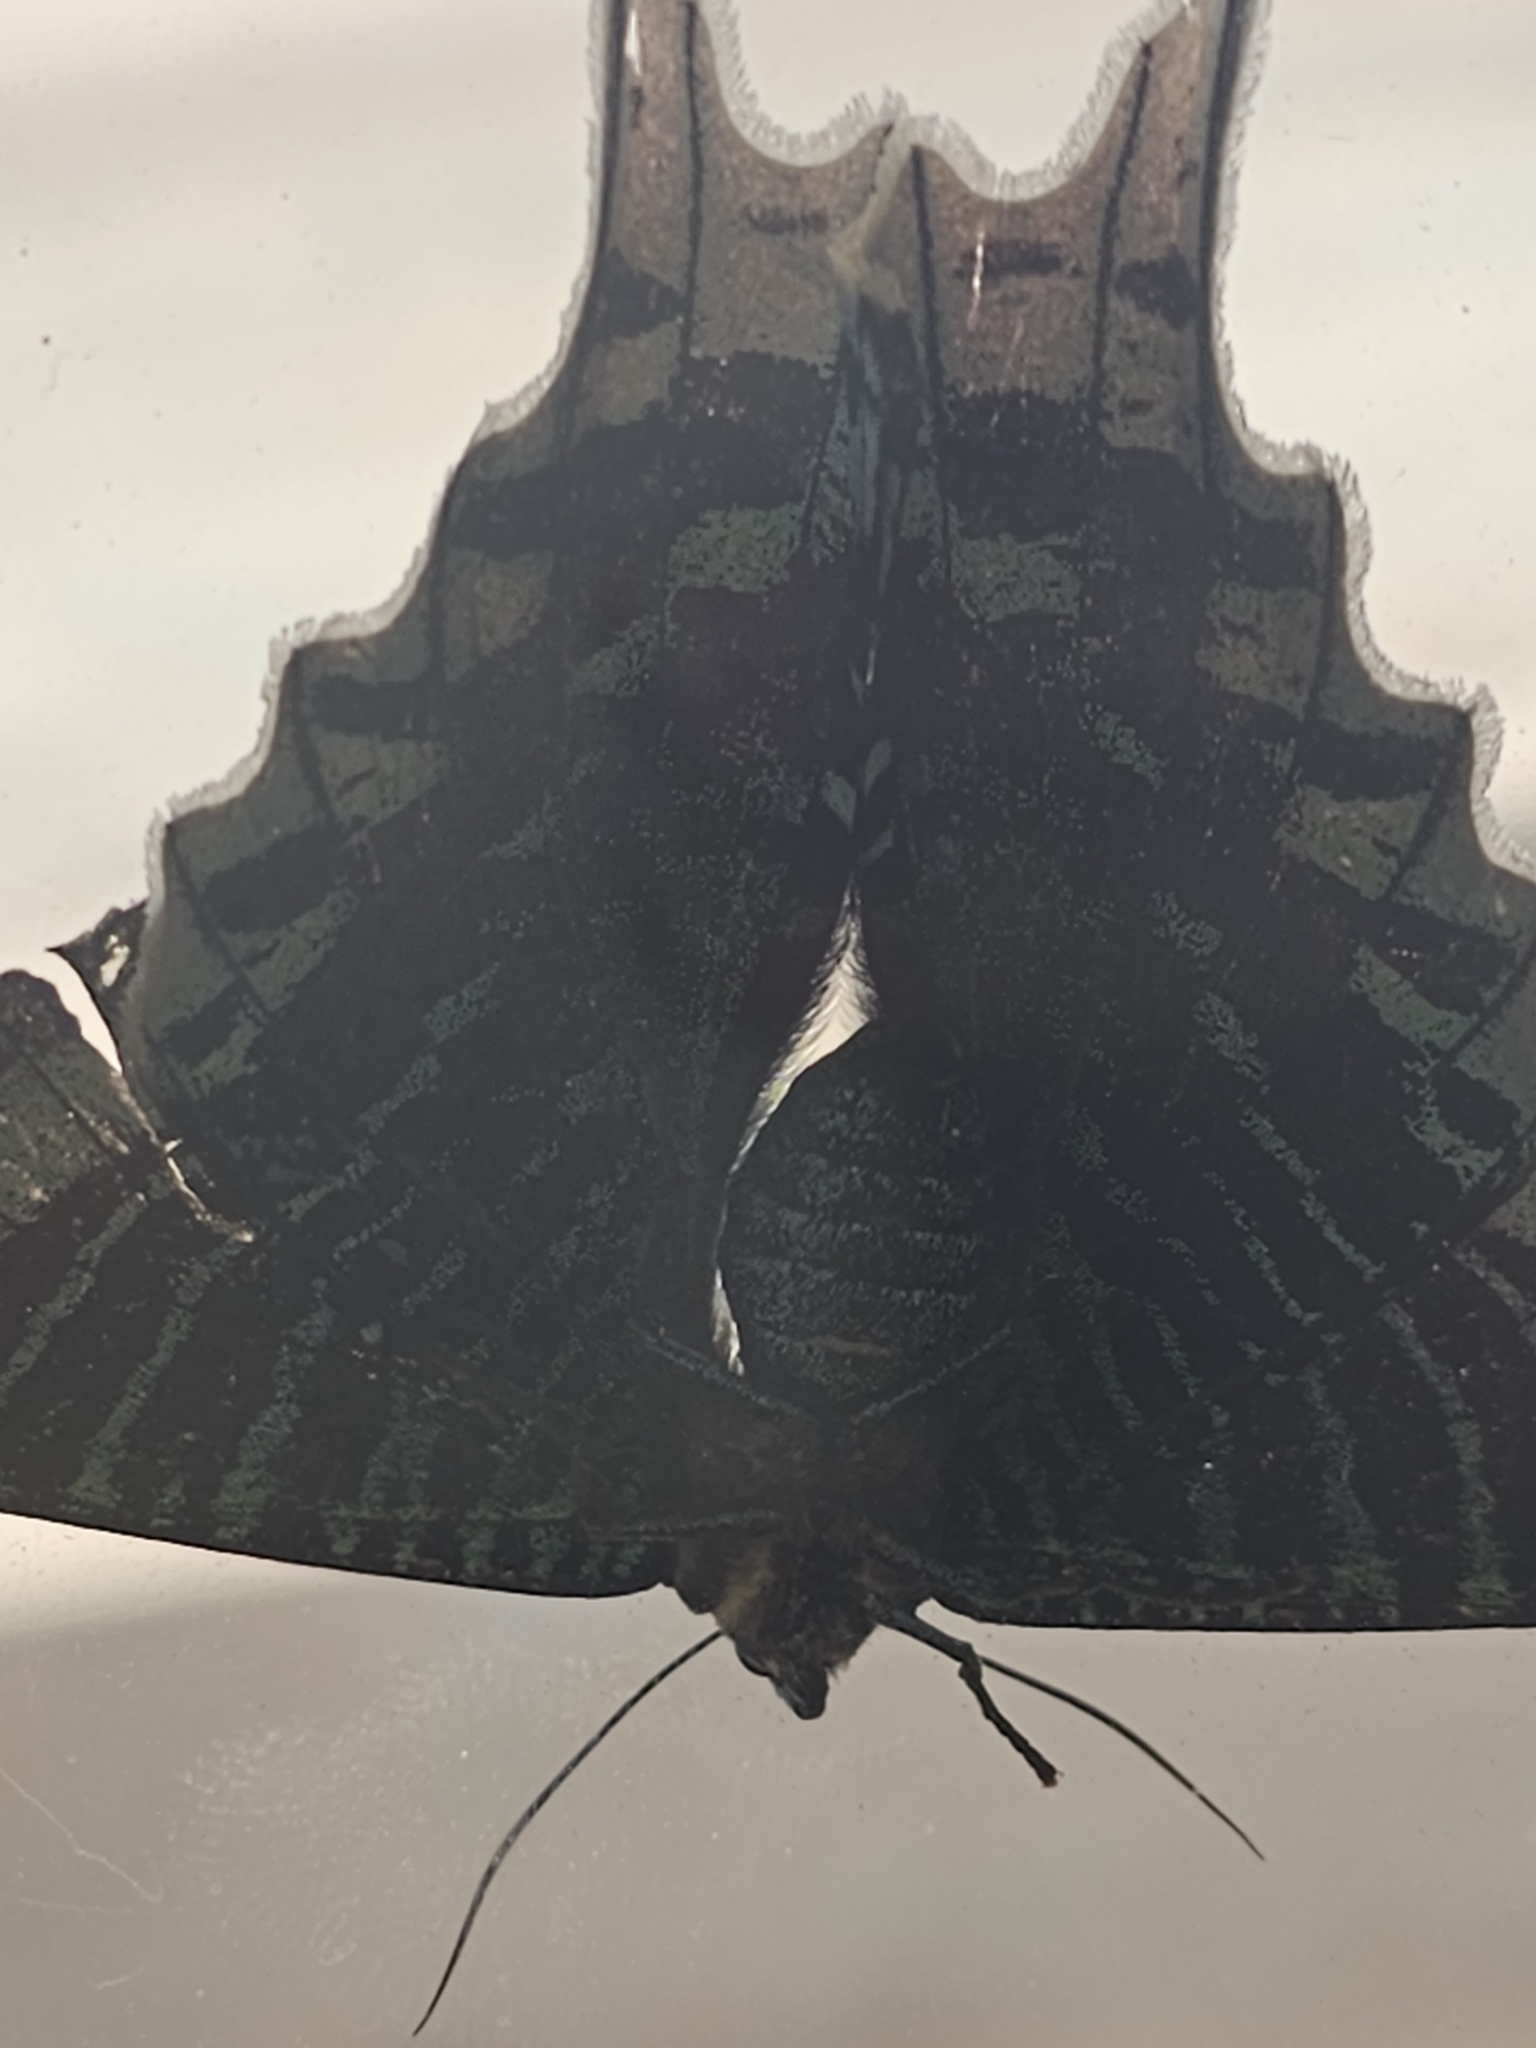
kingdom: Animalia
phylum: Arthropoda
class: Insecta
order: Lepidoptera
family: Uraniidae
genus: Urania
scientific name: Urania leilus
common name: Peacock moth
